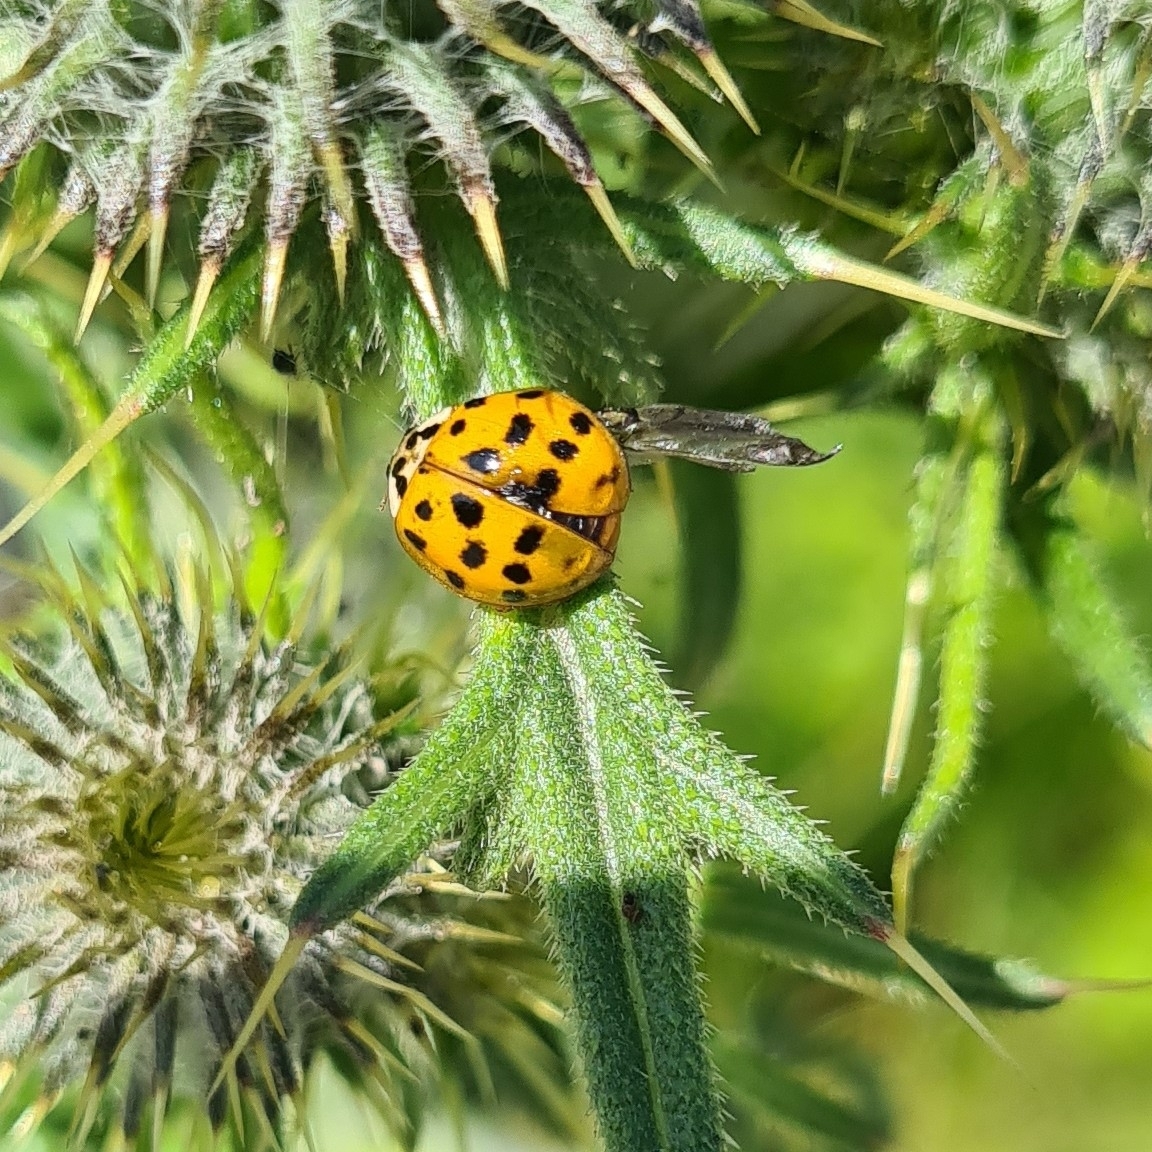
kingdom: Animalia
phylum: Arthropoda
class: Insecta
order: Coleoptera
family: Coccinellidae
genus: Harmonia
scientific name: Harmonia axyridis
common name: Harlequin ladybird
